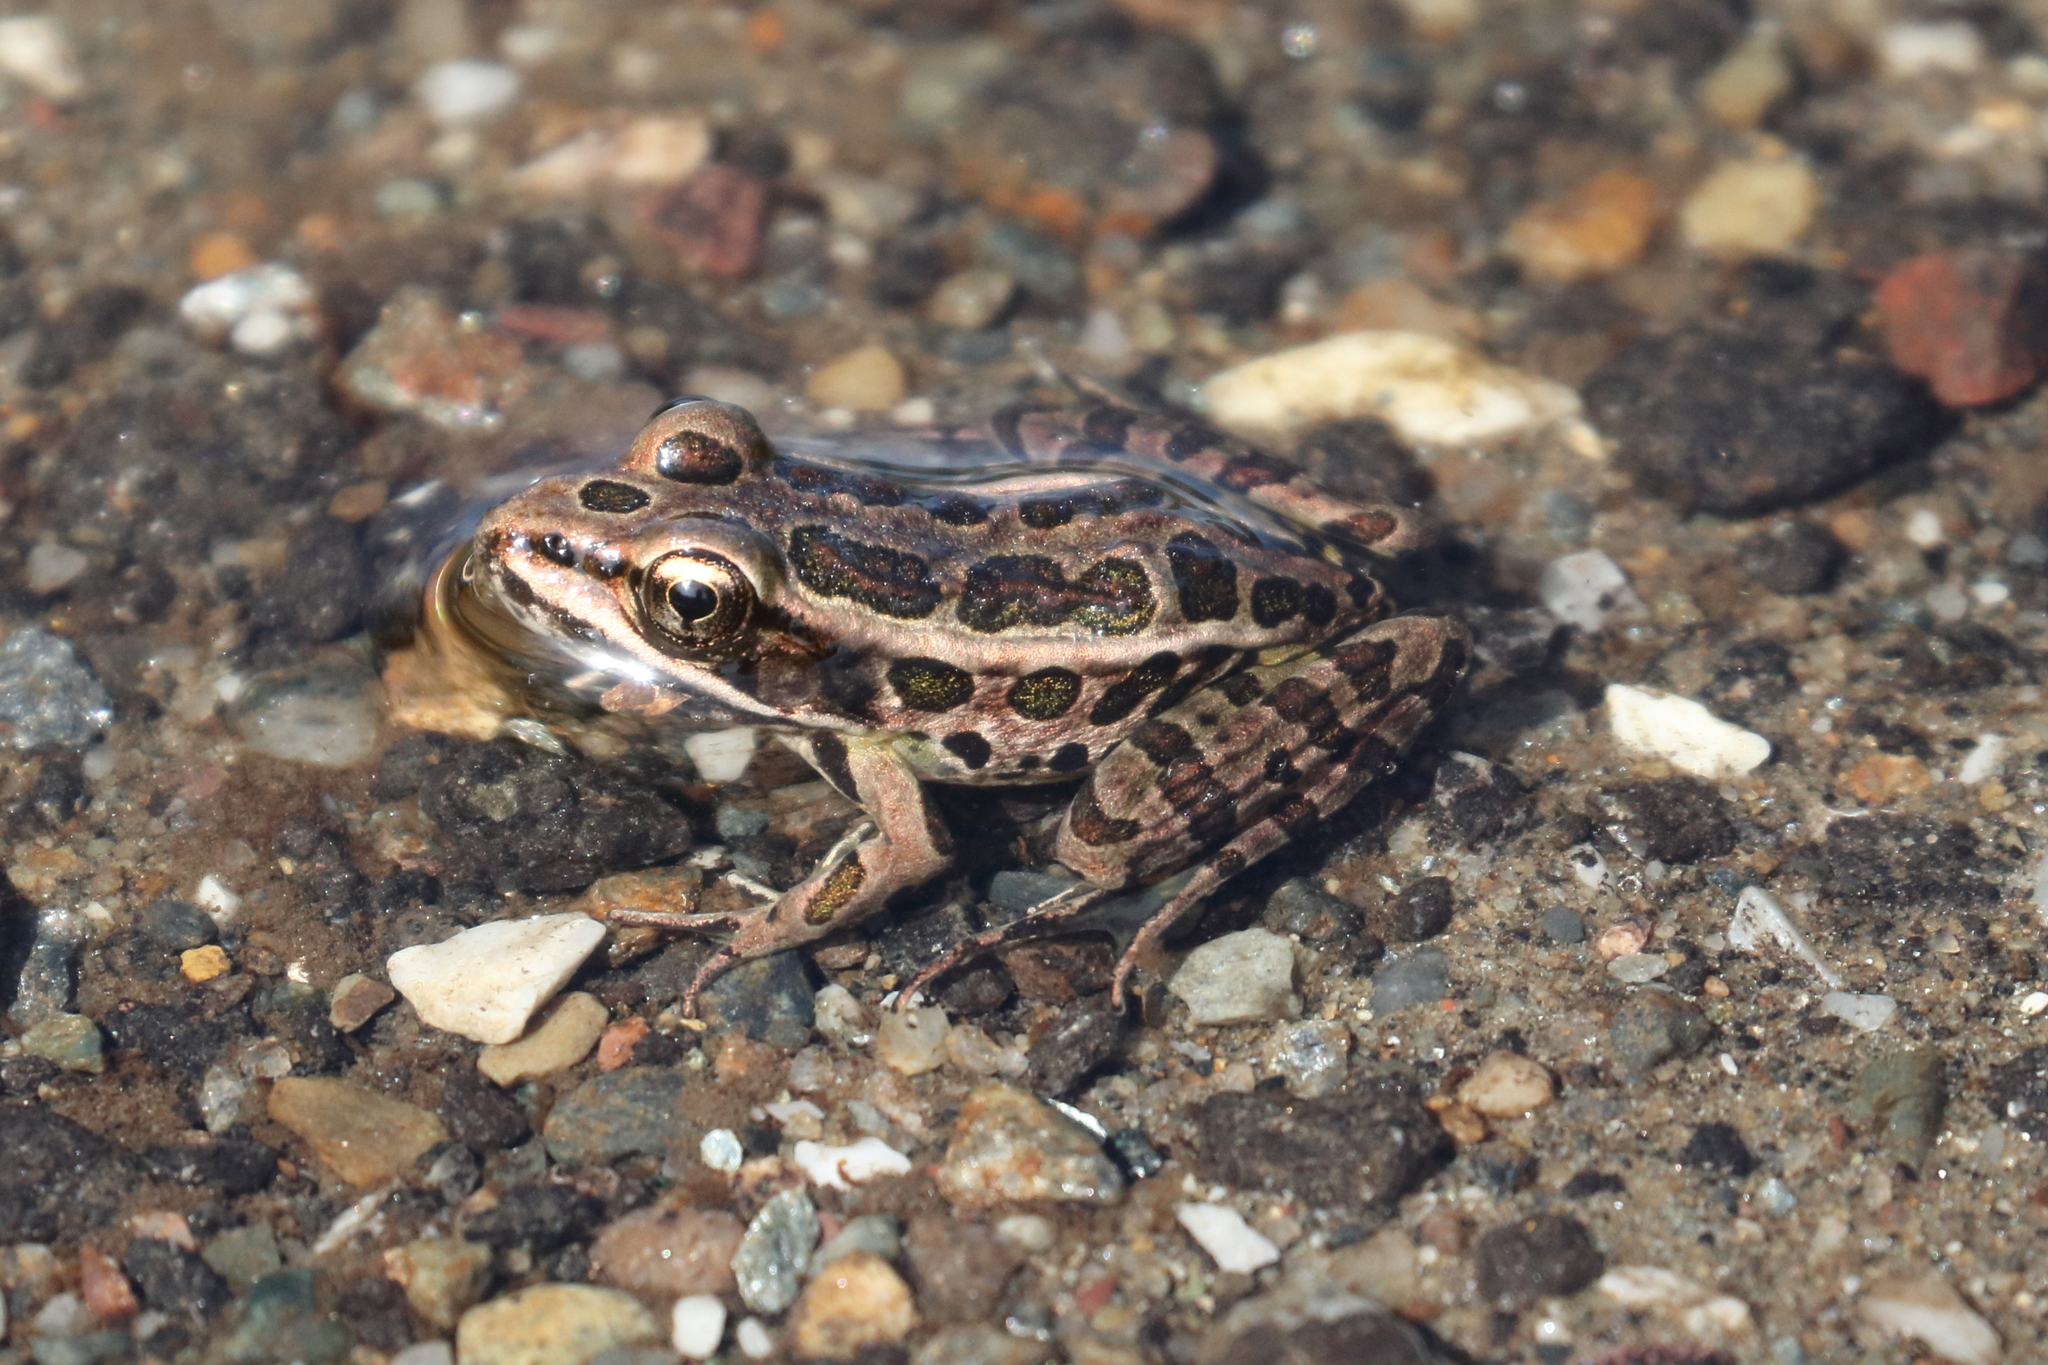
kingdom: Animalia
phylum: Chordata
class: Amphibia
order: Anura
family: Ranidae
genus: Lithobates
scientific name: Lithobates palustris
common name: Pickerel frog
